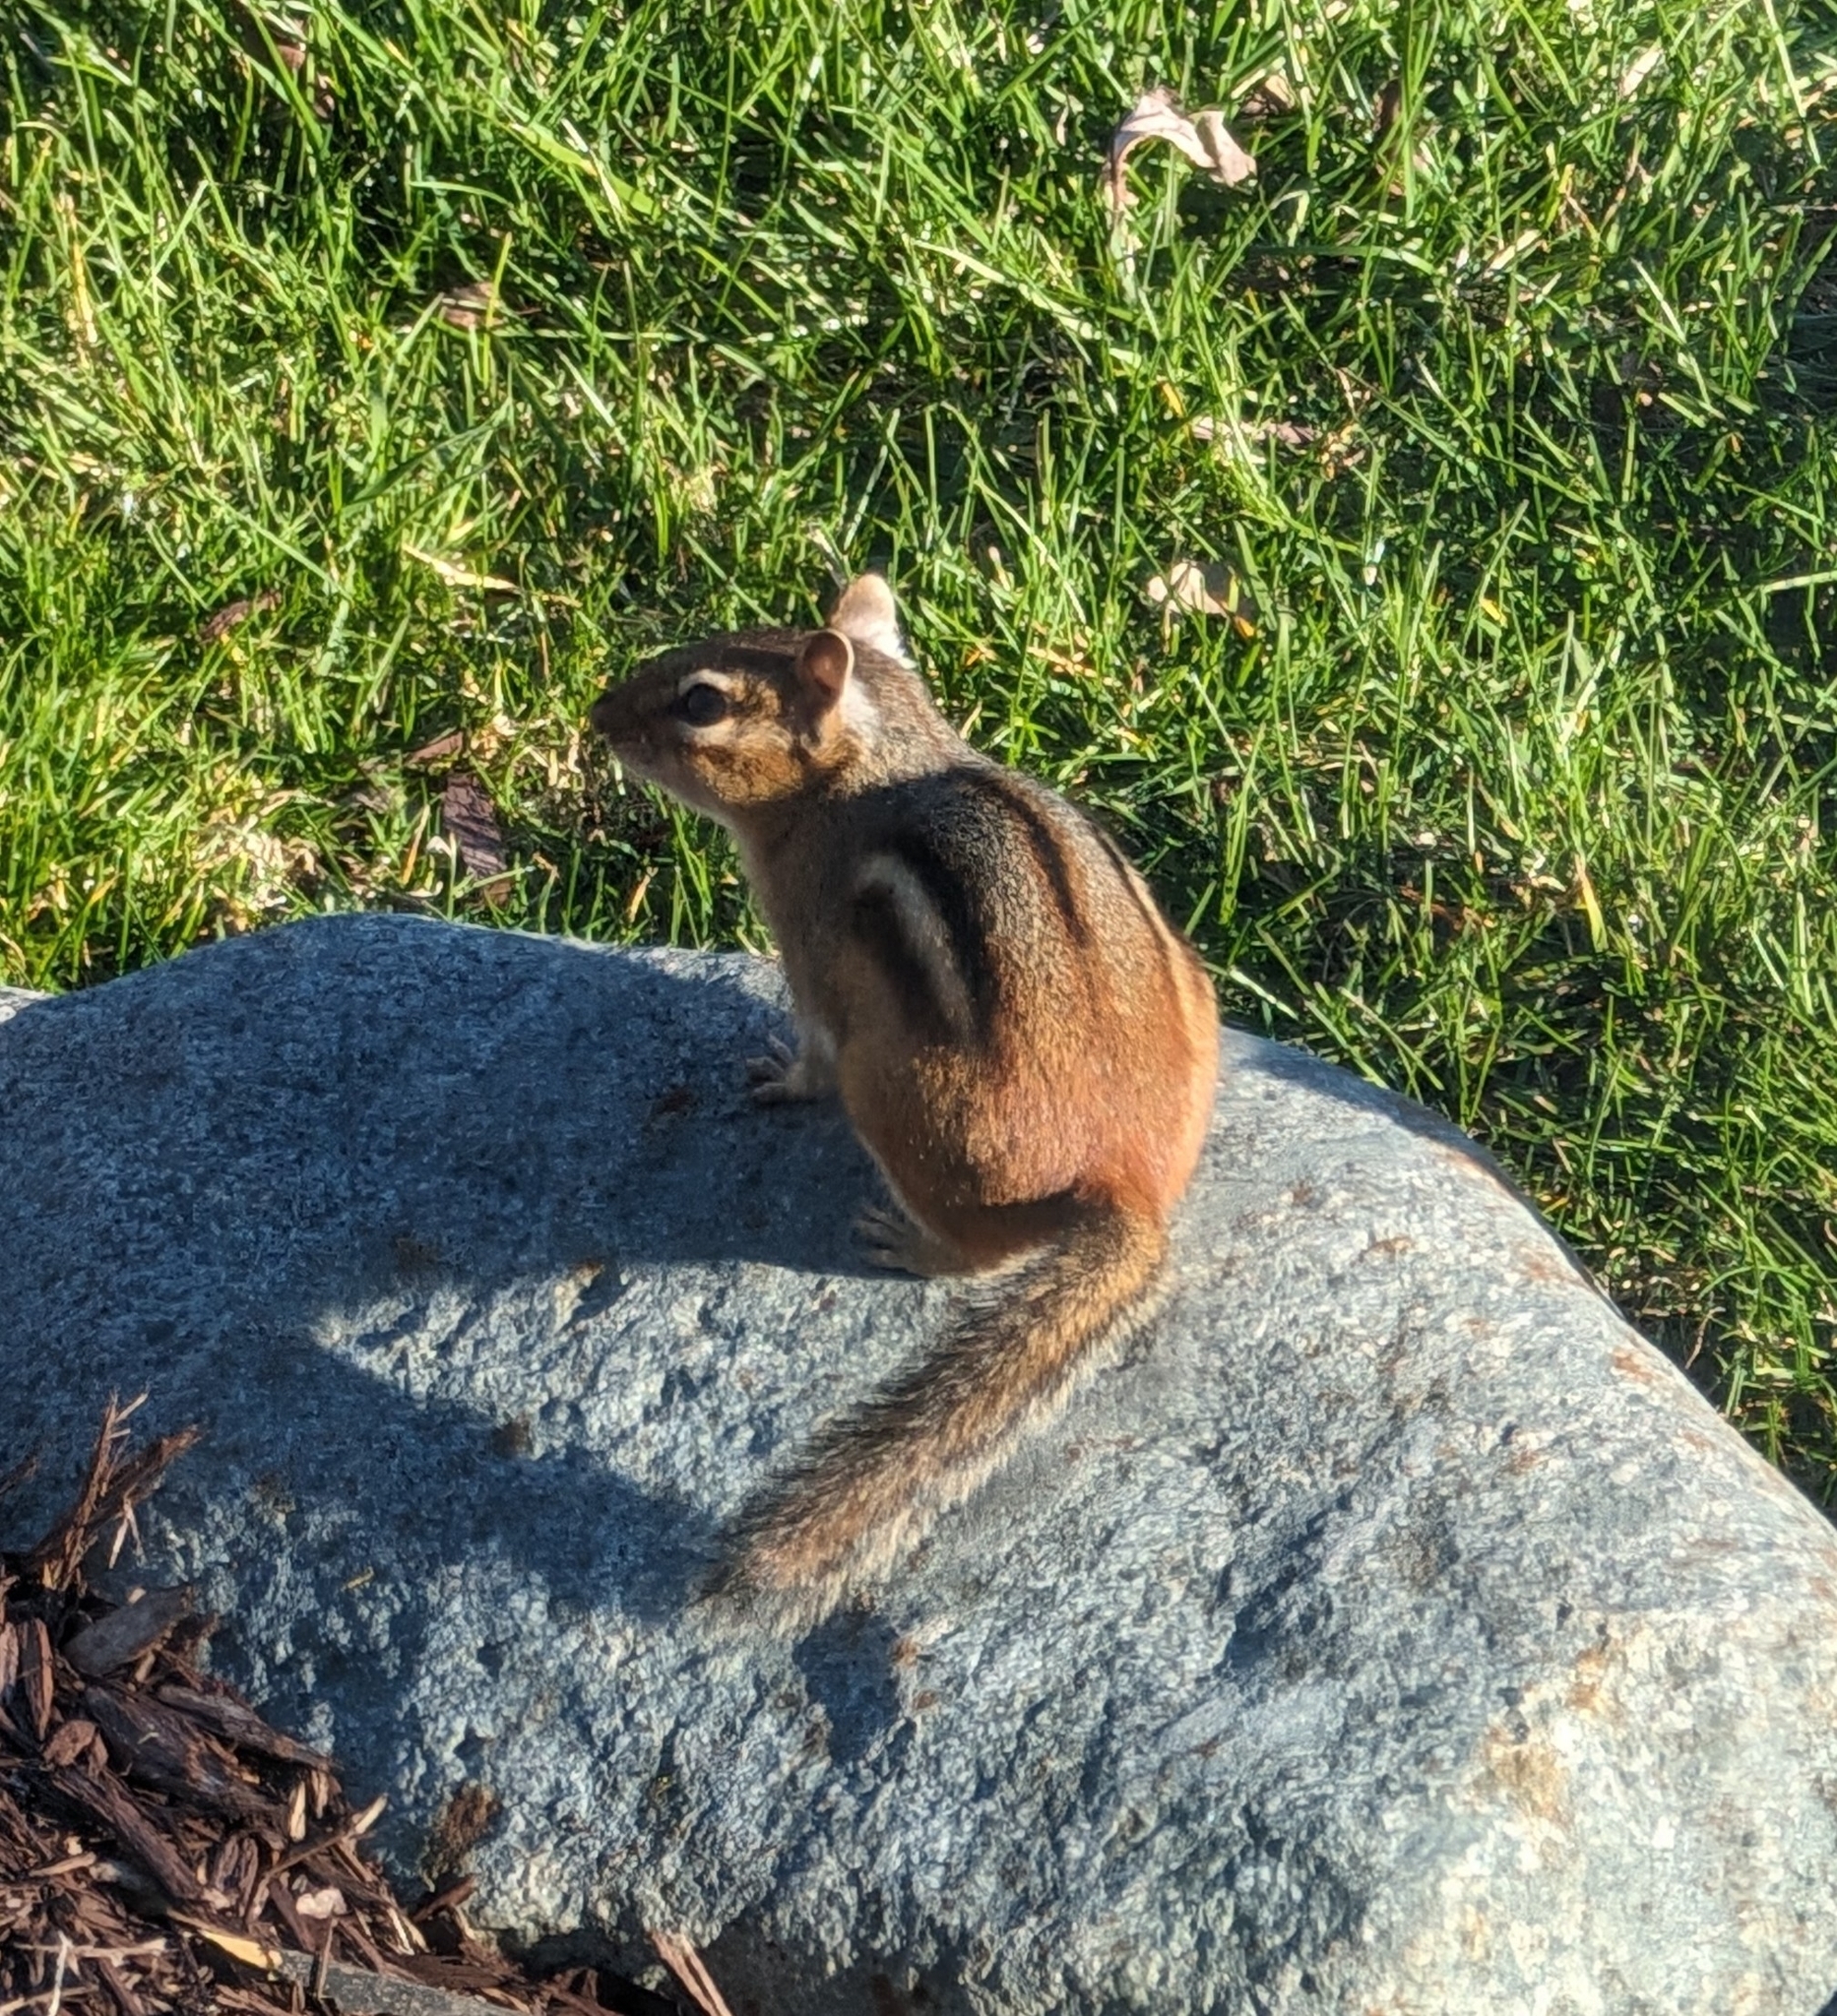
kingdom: Animalia
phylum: Chordata
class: Mammalia
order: Rodentia
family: Sciuridae
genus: Tamias
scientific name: Tamias striatus
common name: Eastern chipmunk
